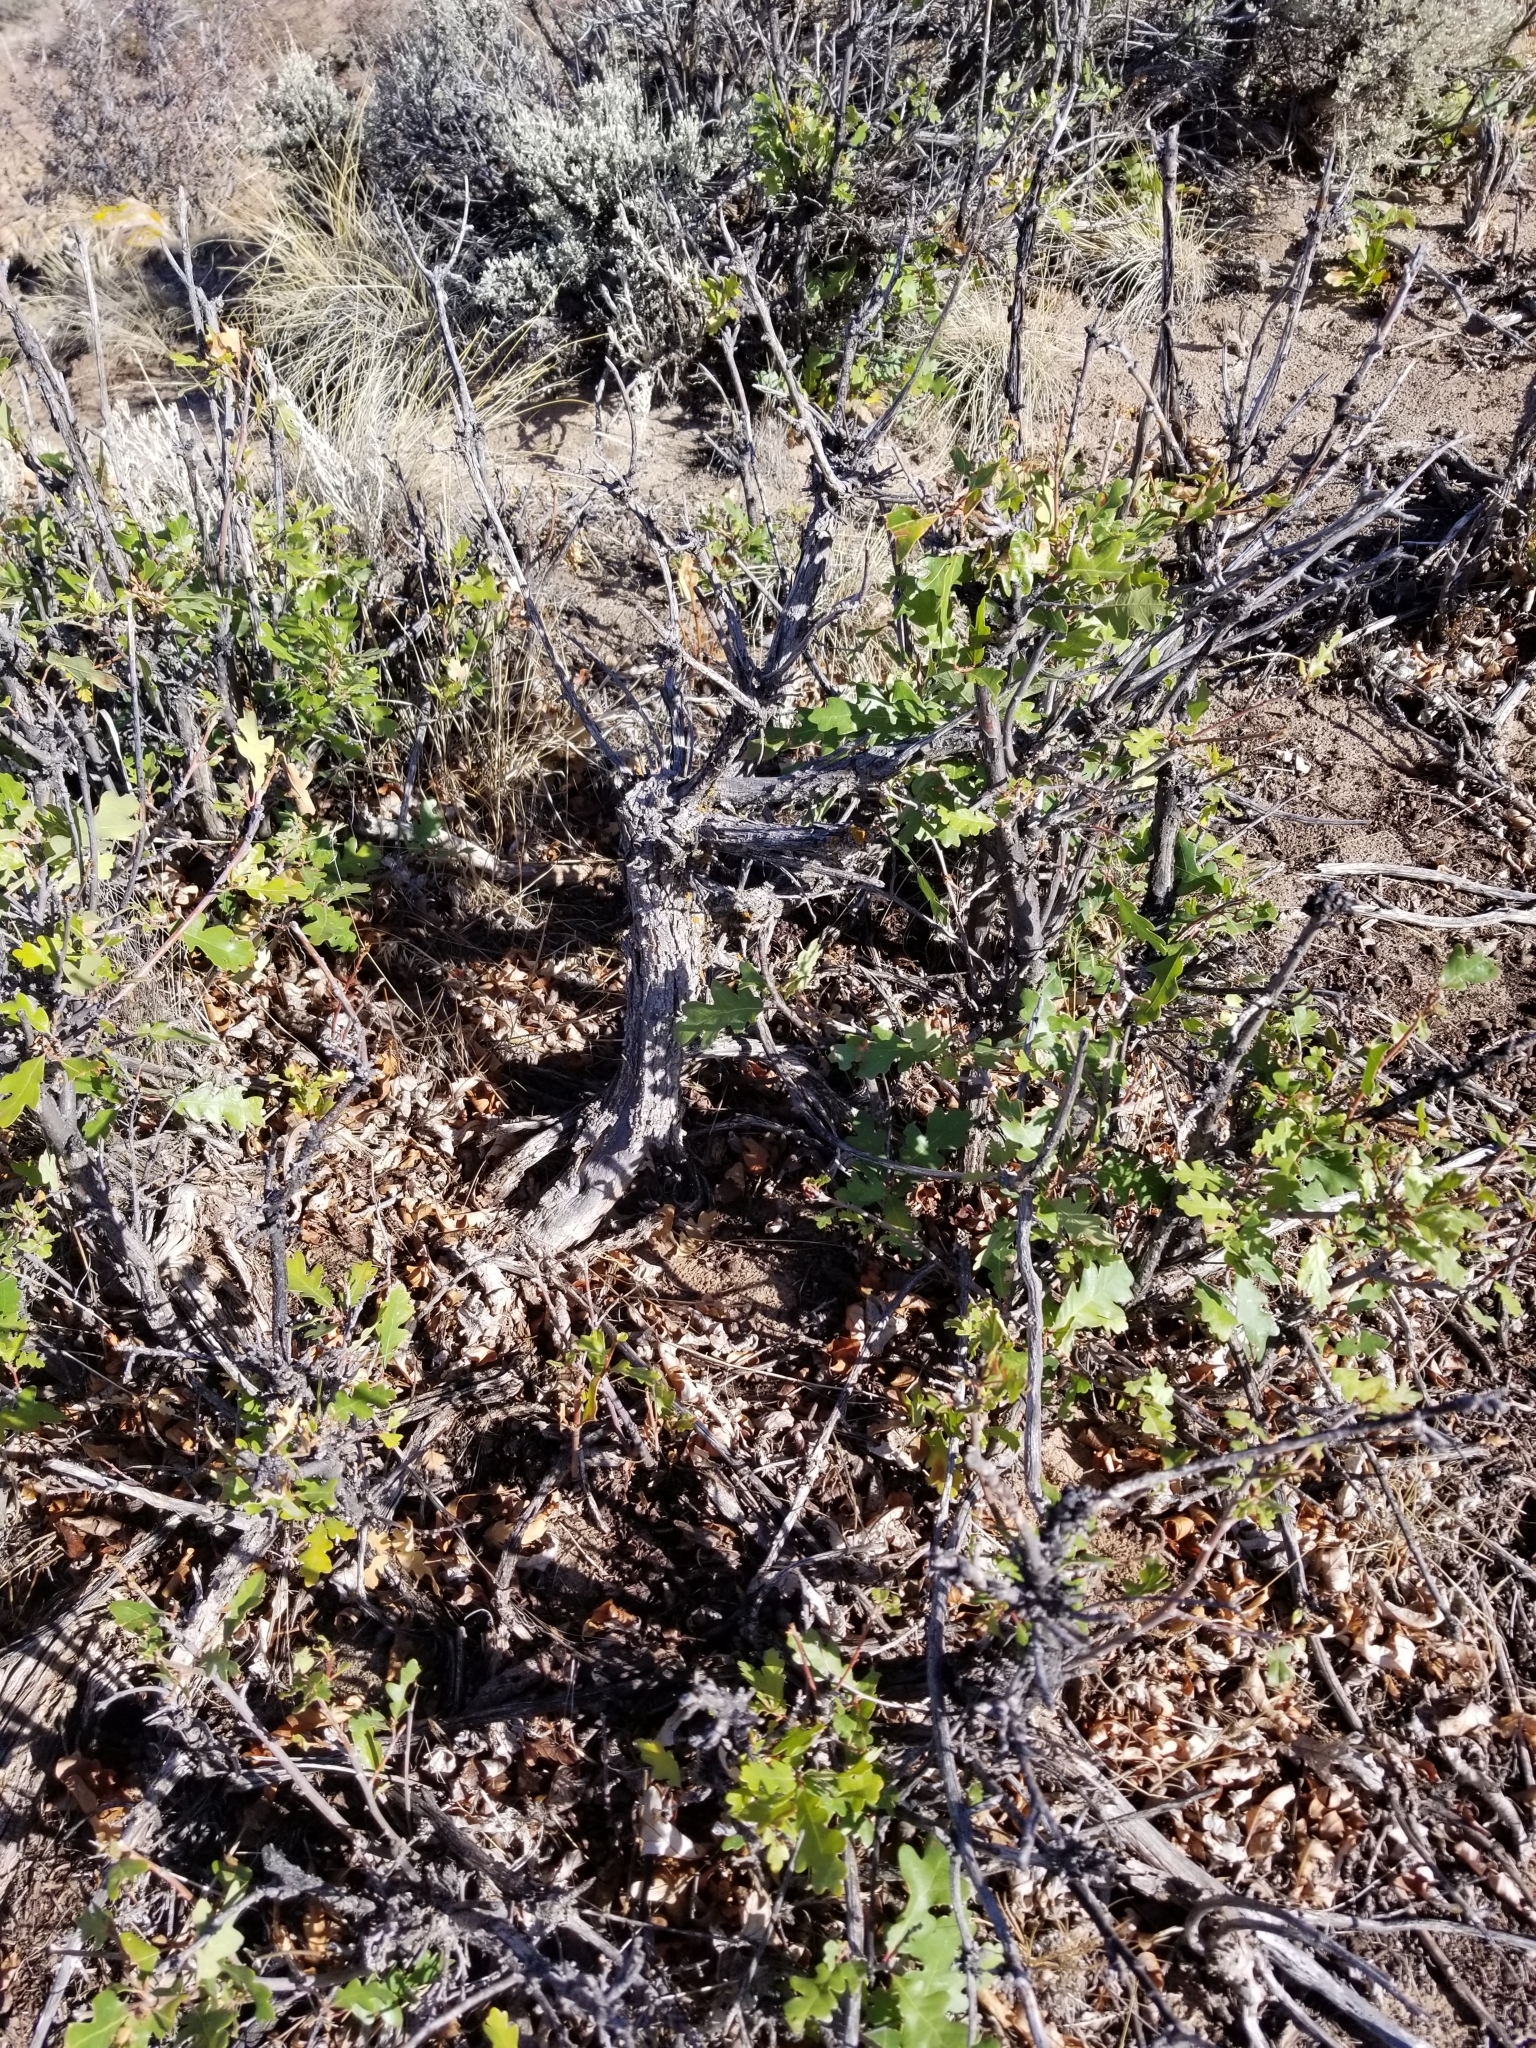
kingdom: Plantae
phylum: Tracheophyta
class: Magnoliopsida
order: Fagales
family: Fagaceae
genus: Quercus
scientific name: Quercus gambelii
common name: Gambel oak
